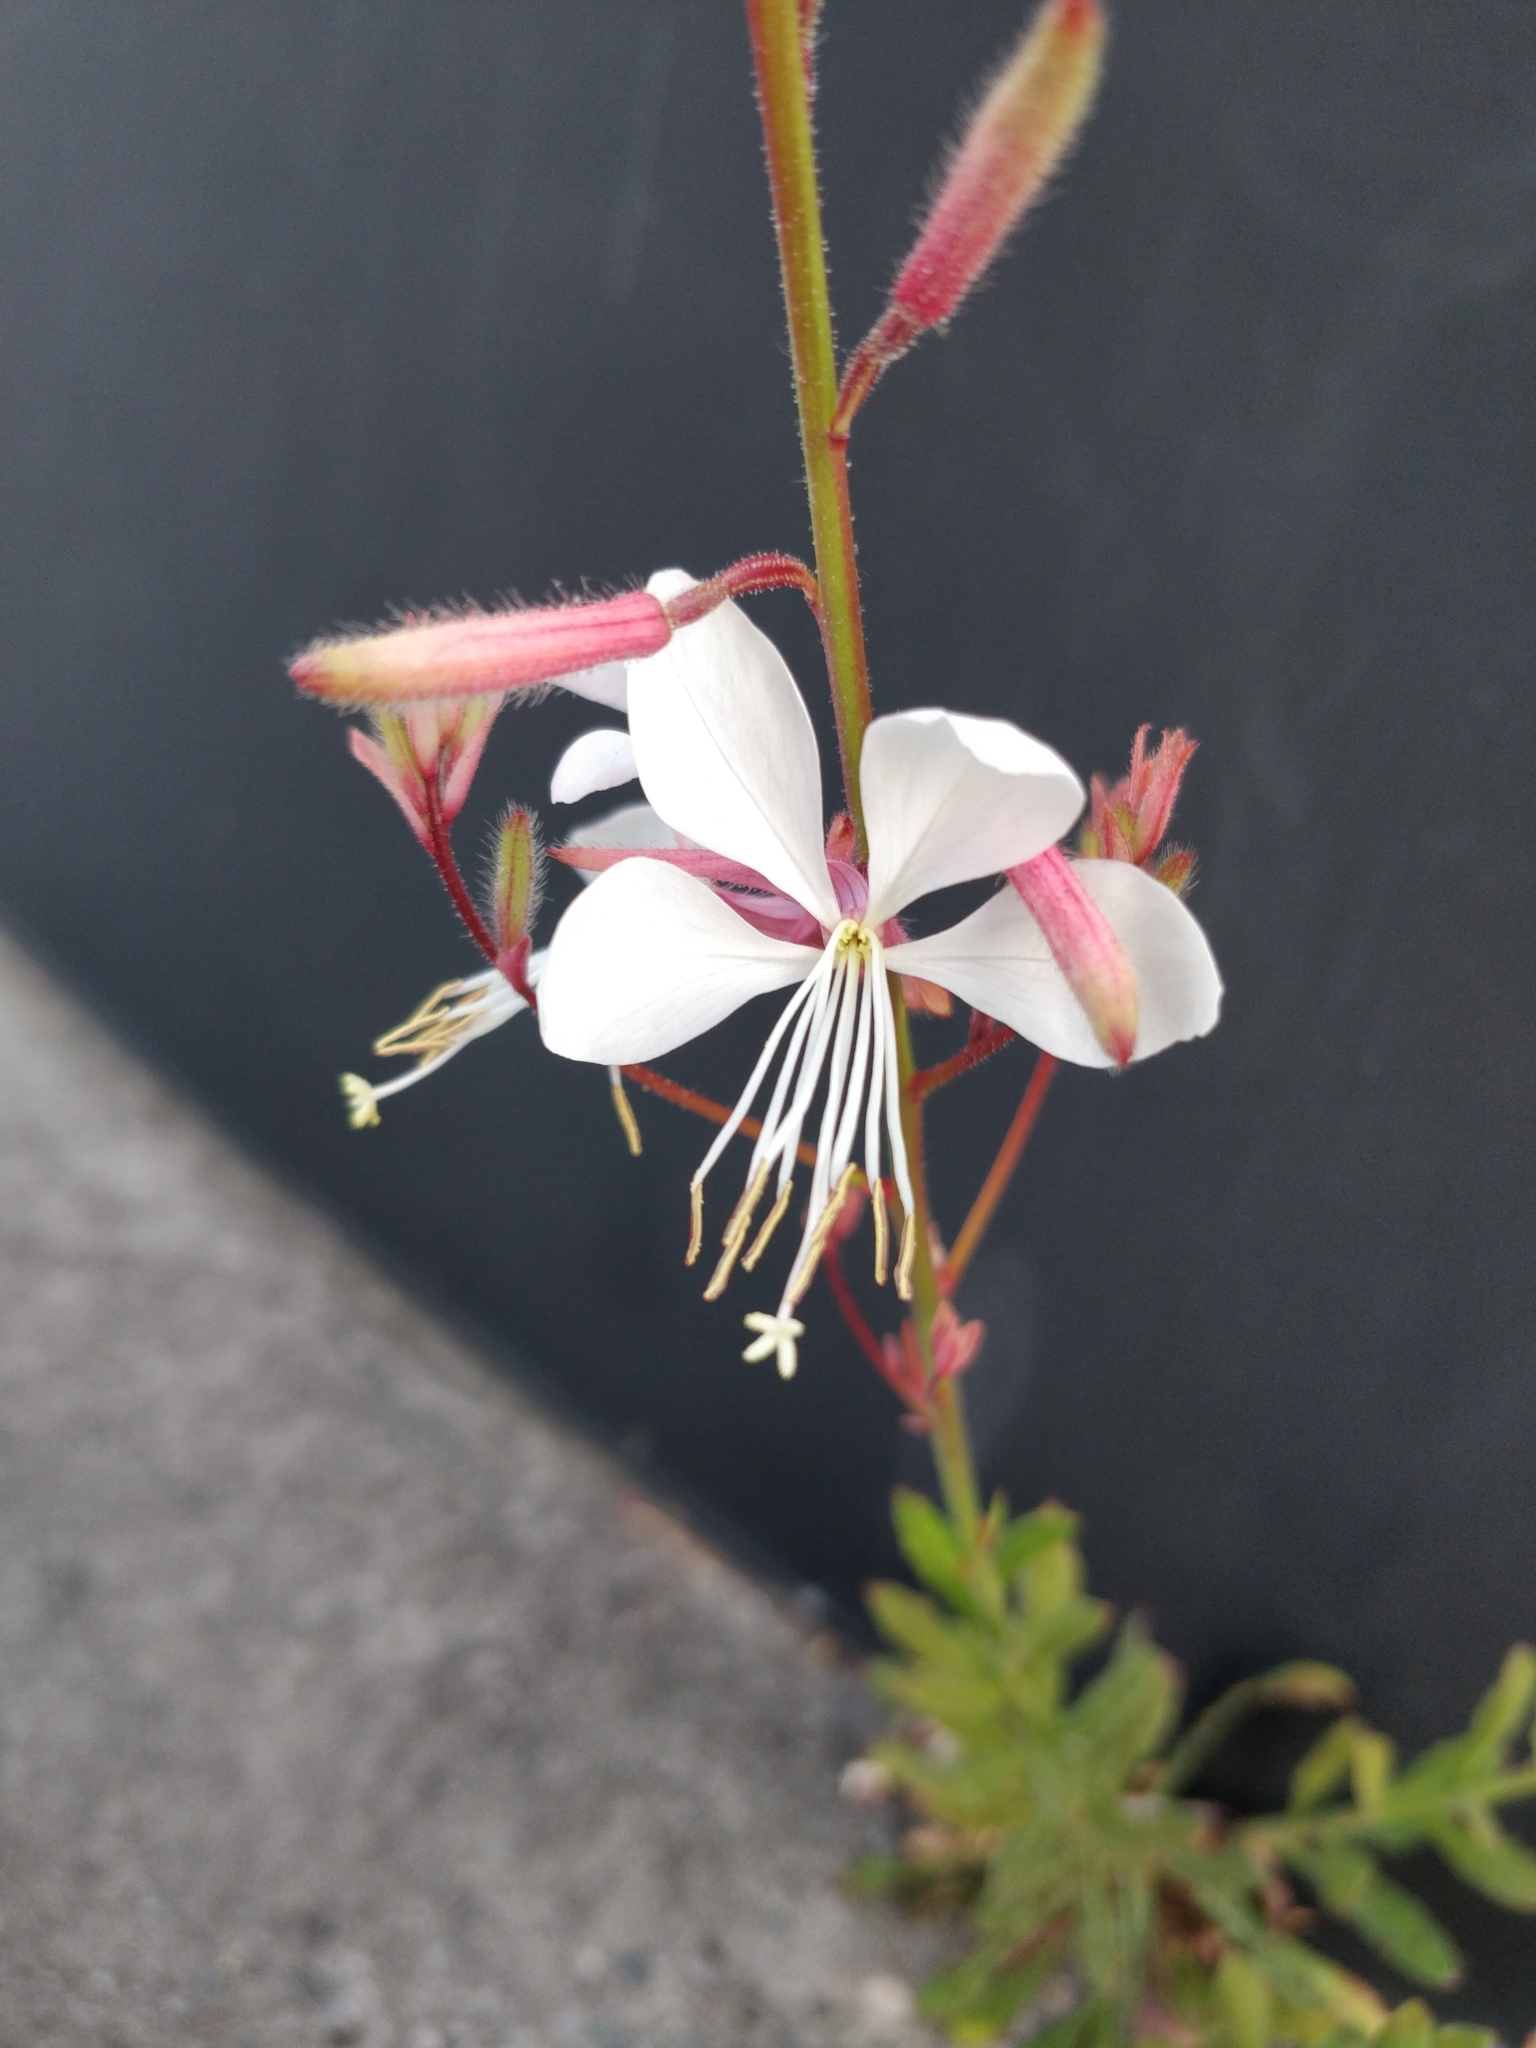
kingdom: Plantae
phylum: Tracheophyta
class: Magnoliopsida
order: Myrtales
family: Onagraceae
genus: Oenothera
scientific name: Oenothera lindheimeri
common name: Lindheimer's beeblossom
